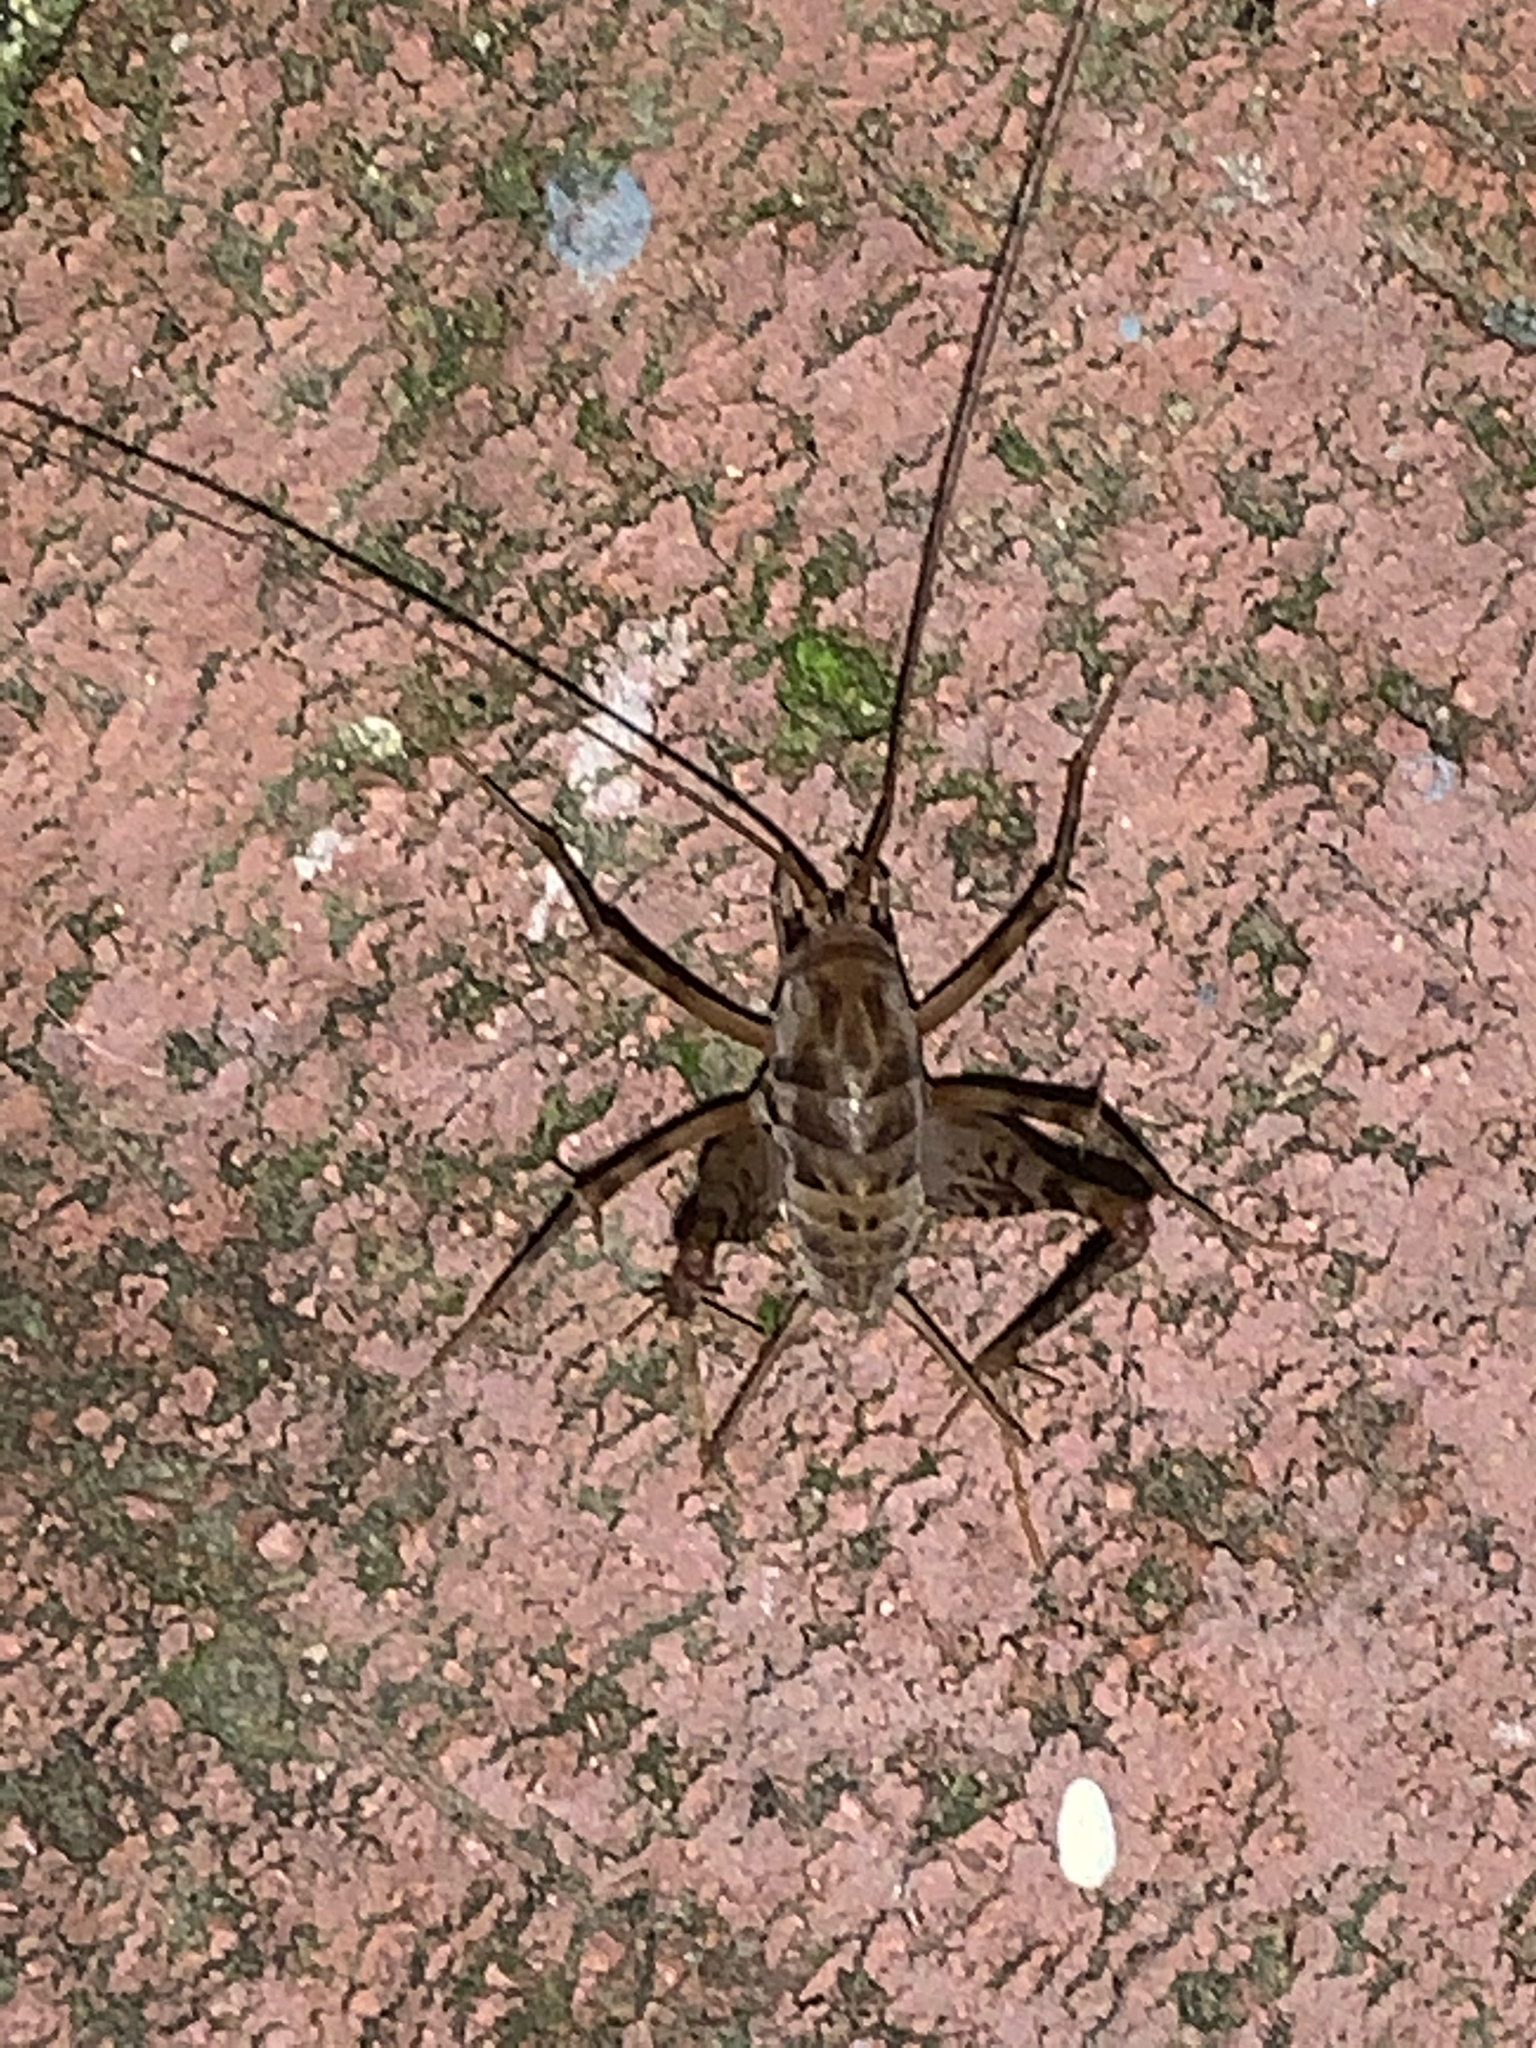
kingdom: Animalia
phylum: Arthropoda
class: Insecta
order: Orthoptera
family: Rhaphidophoridae
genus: Tachycines
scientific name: Tachycines asynamorus
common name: Greenhouse camel cricket
